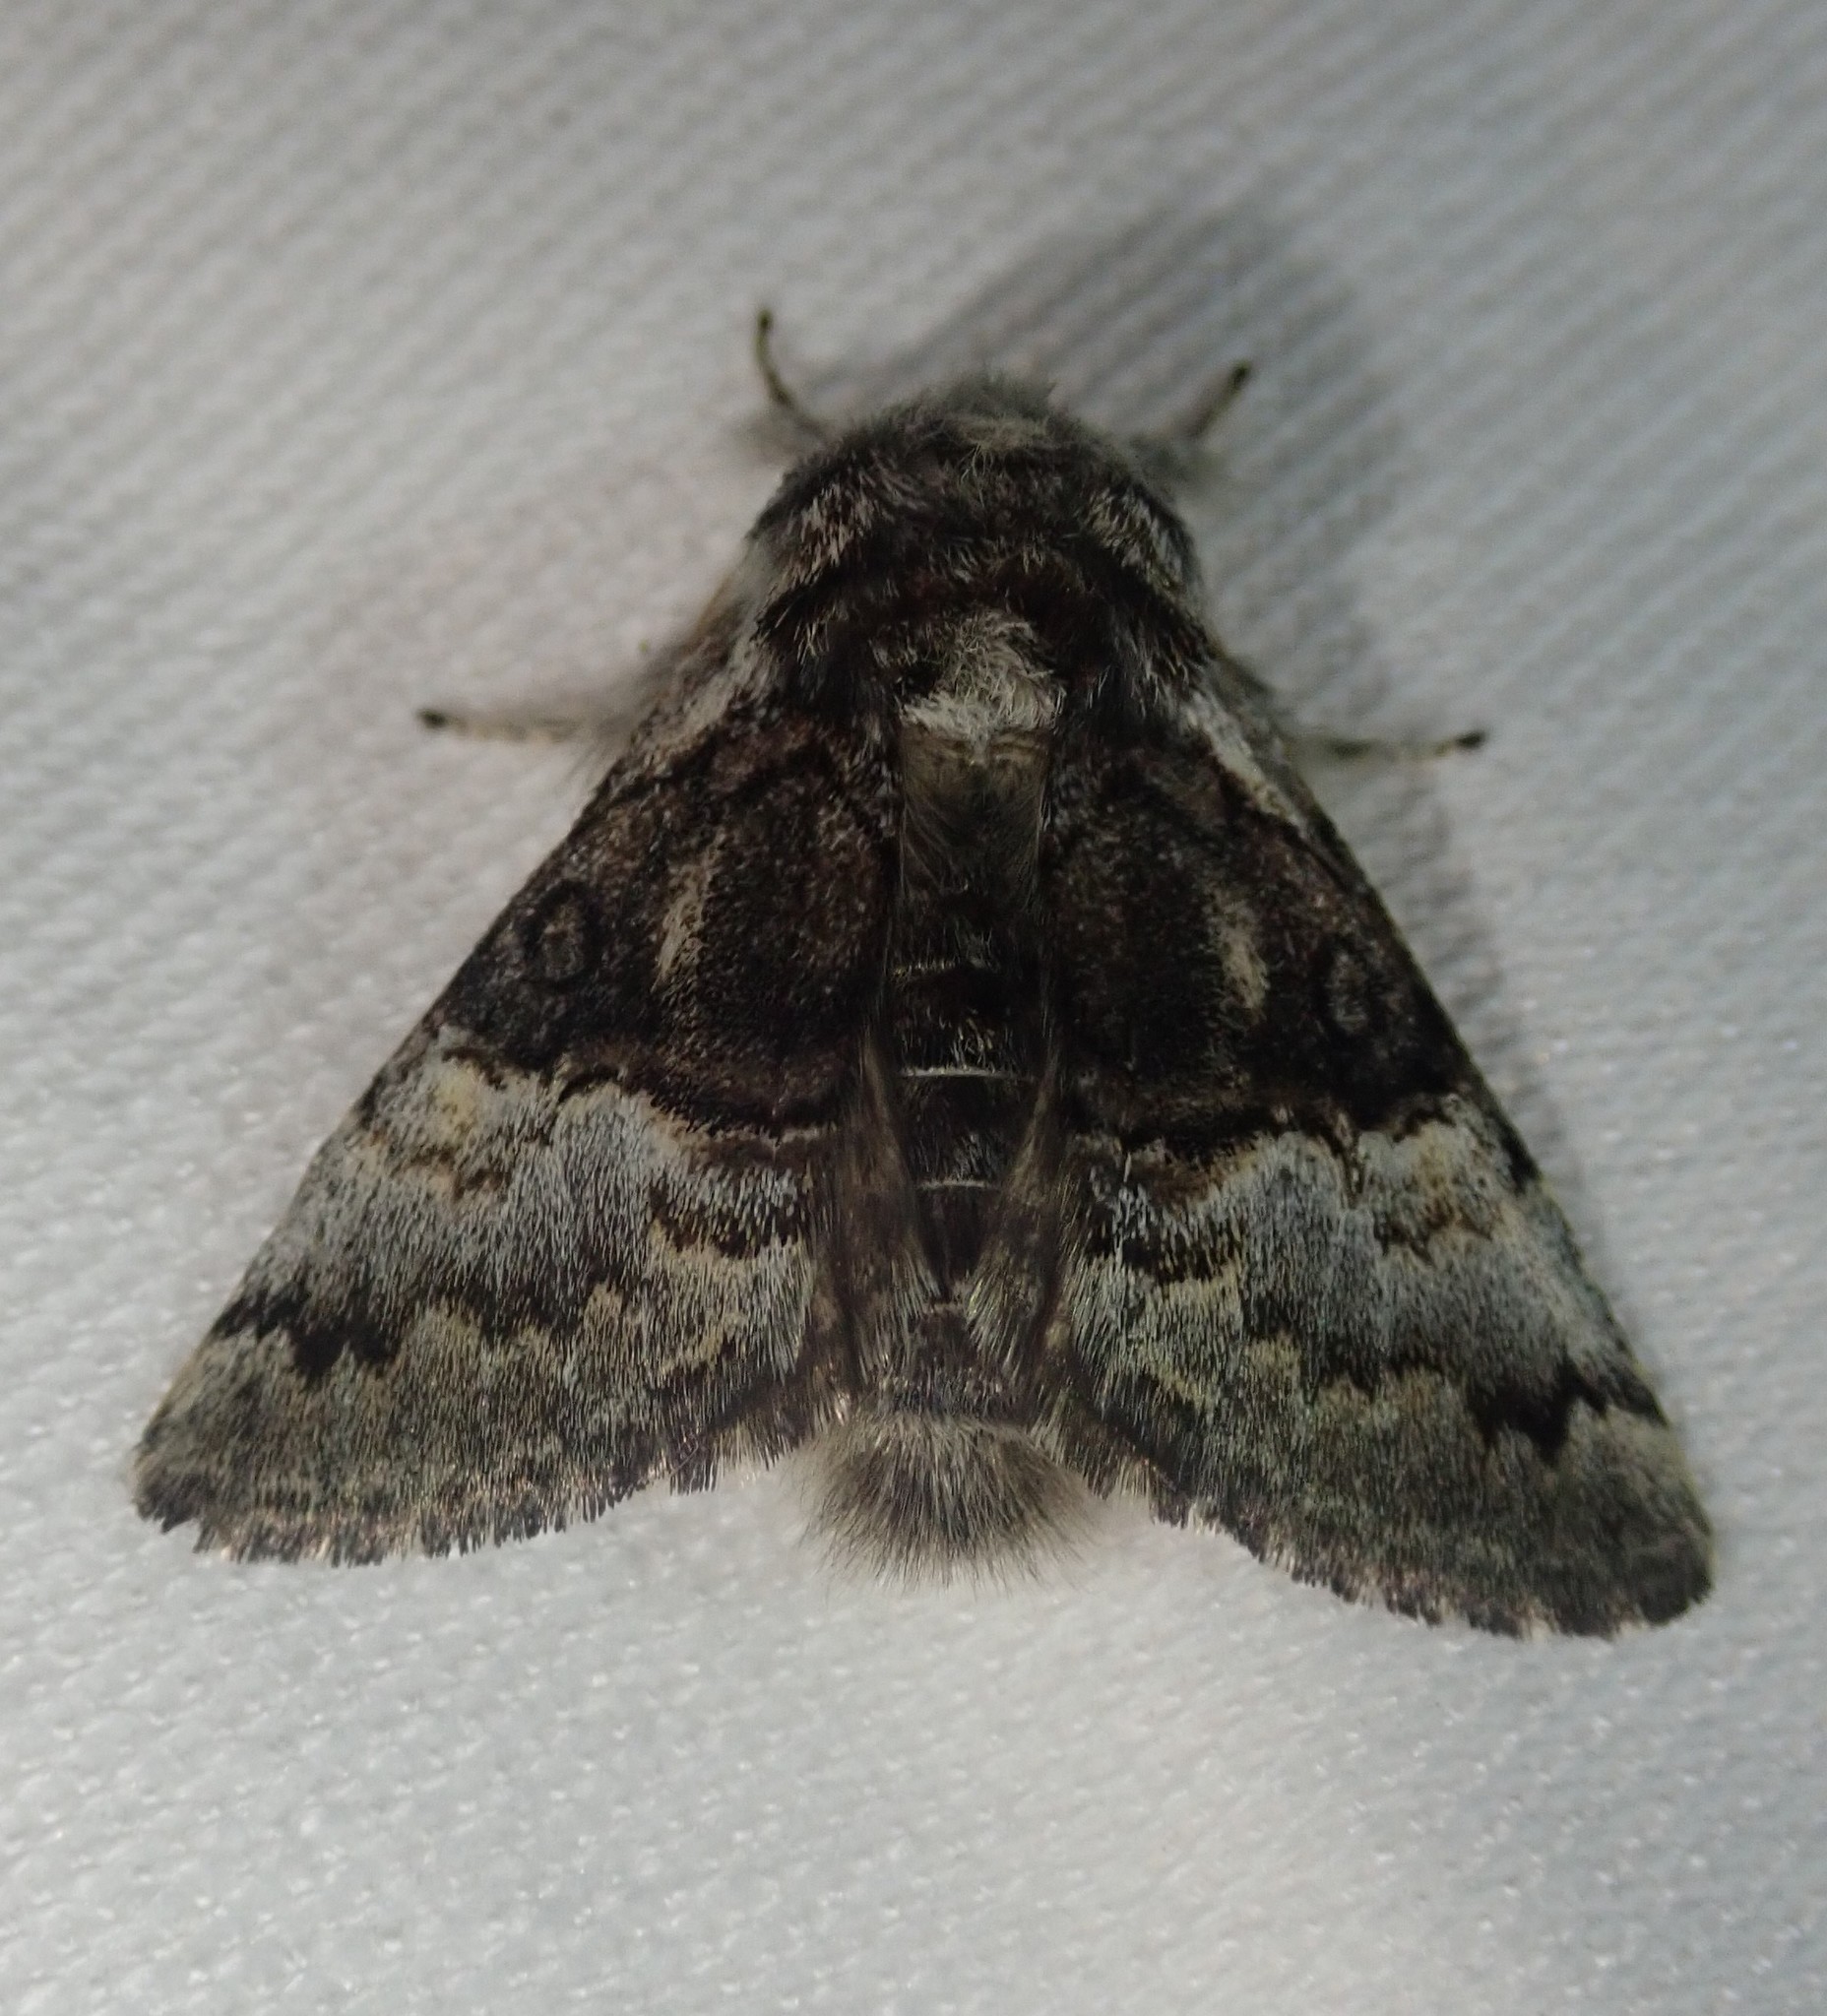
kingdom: Animalia
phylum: Arthropoda
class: Insecta
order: Lepidoptera
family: Noctuidae
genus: Colocasia
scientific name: Colocasia coryli
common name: Nut-tree tussock
